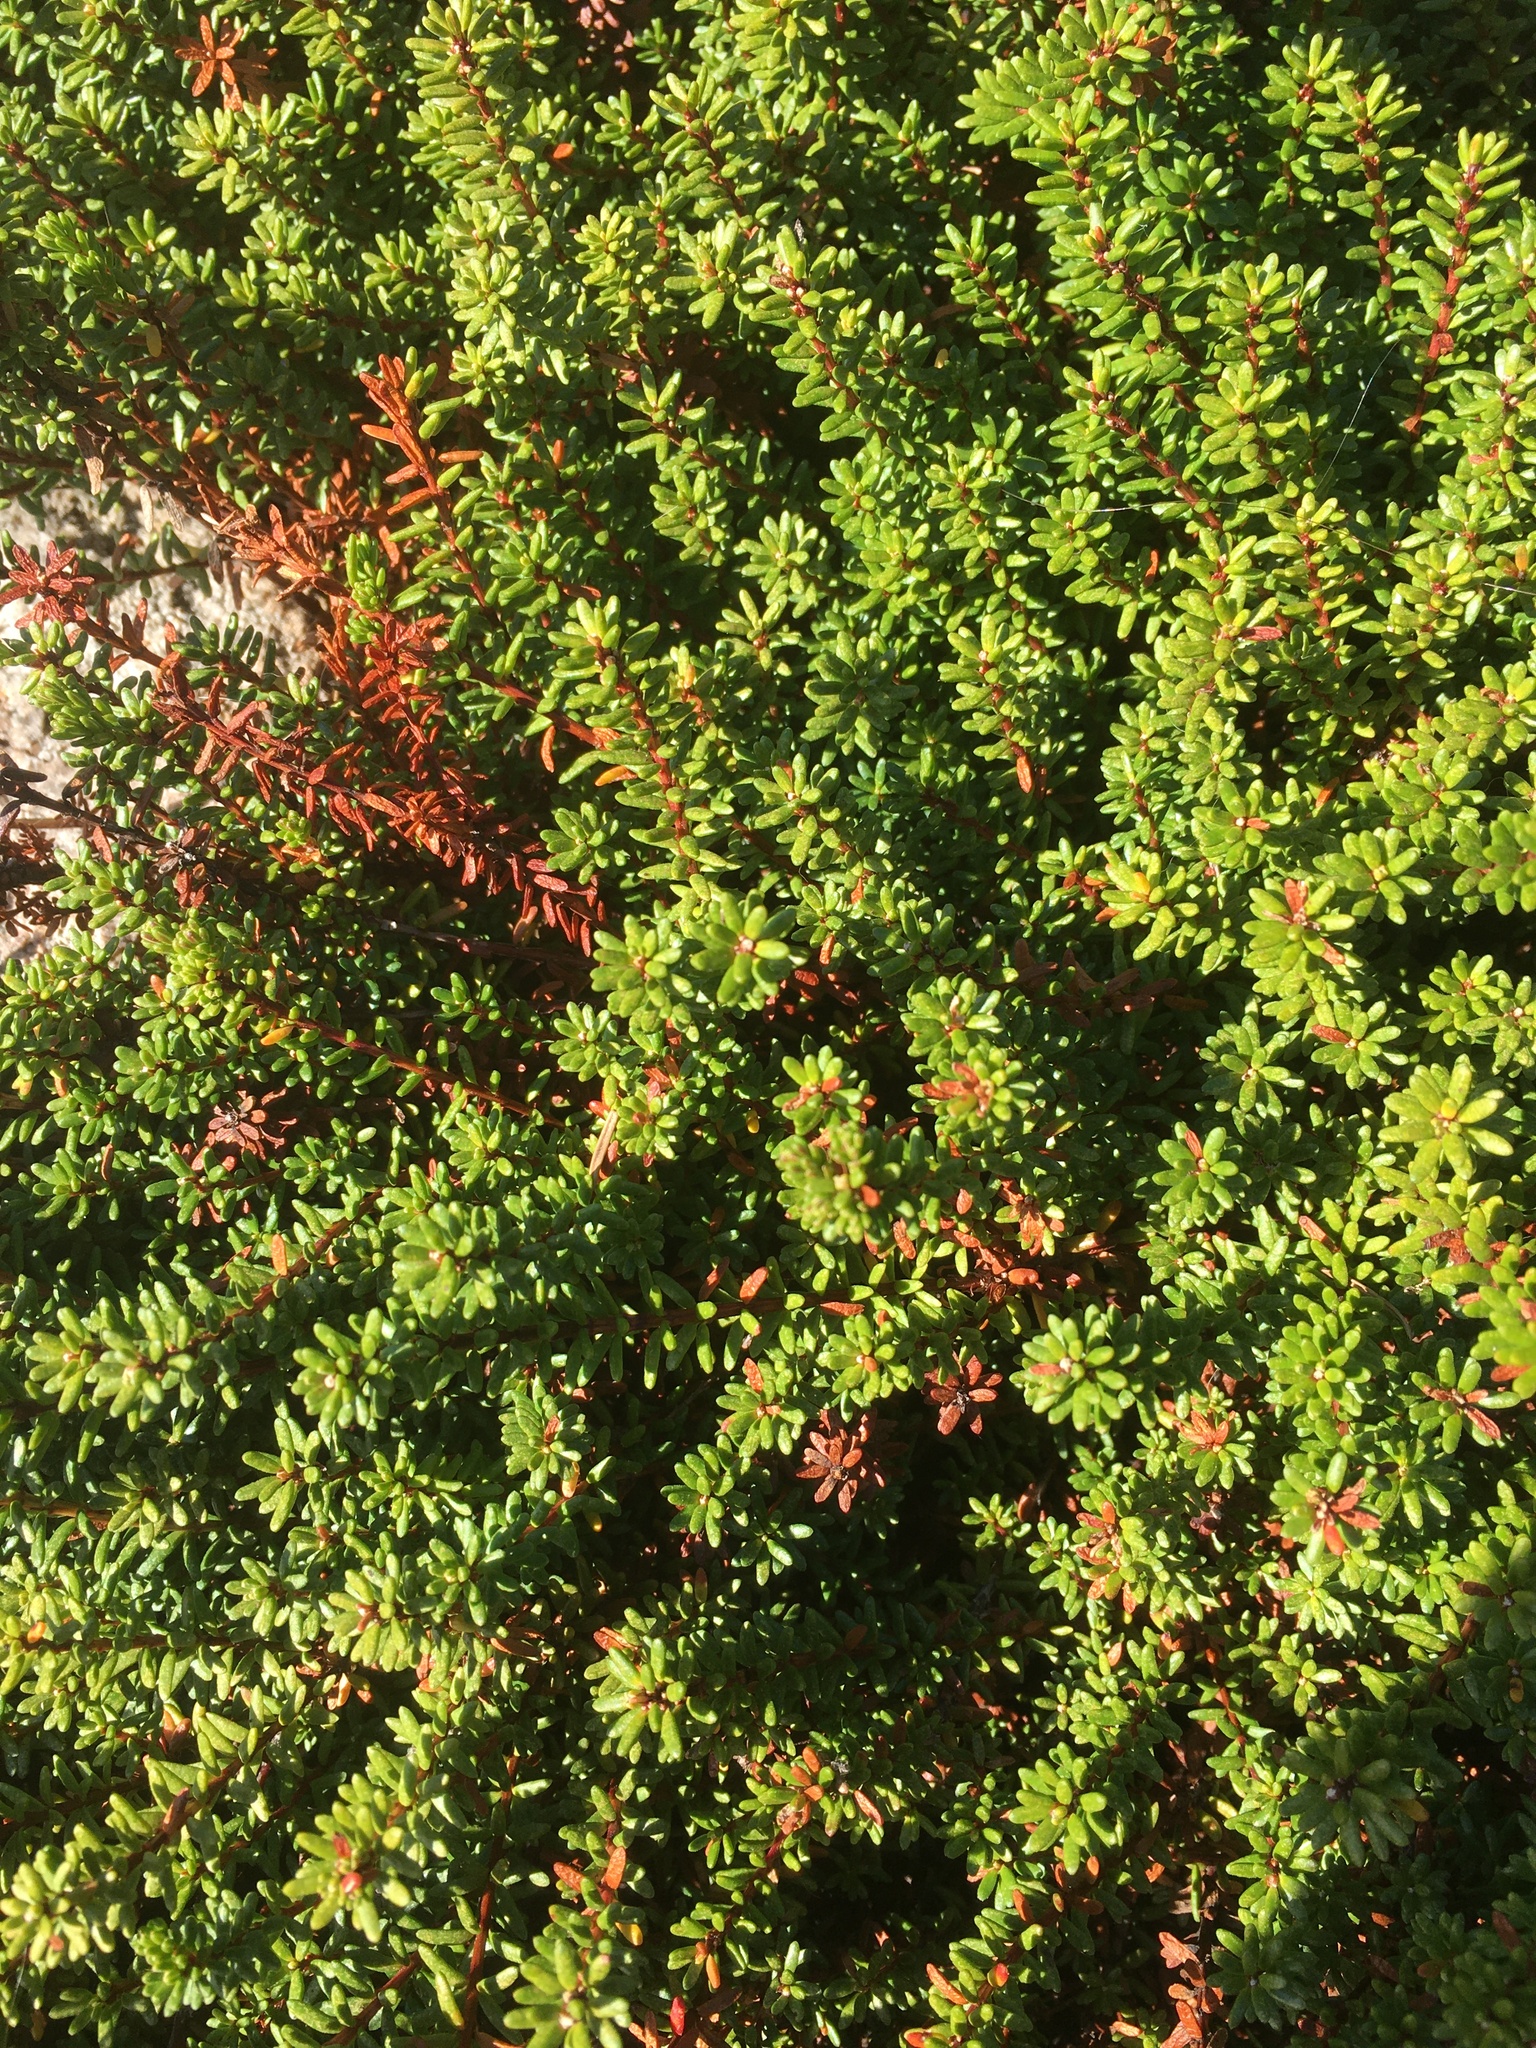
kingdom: Plantae
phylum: Tracheophyta
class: Magnoliopsida
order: Ericales
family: Ericaceae
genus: Empetrum
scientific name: Empetrum nigrum
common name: Black crowberry
